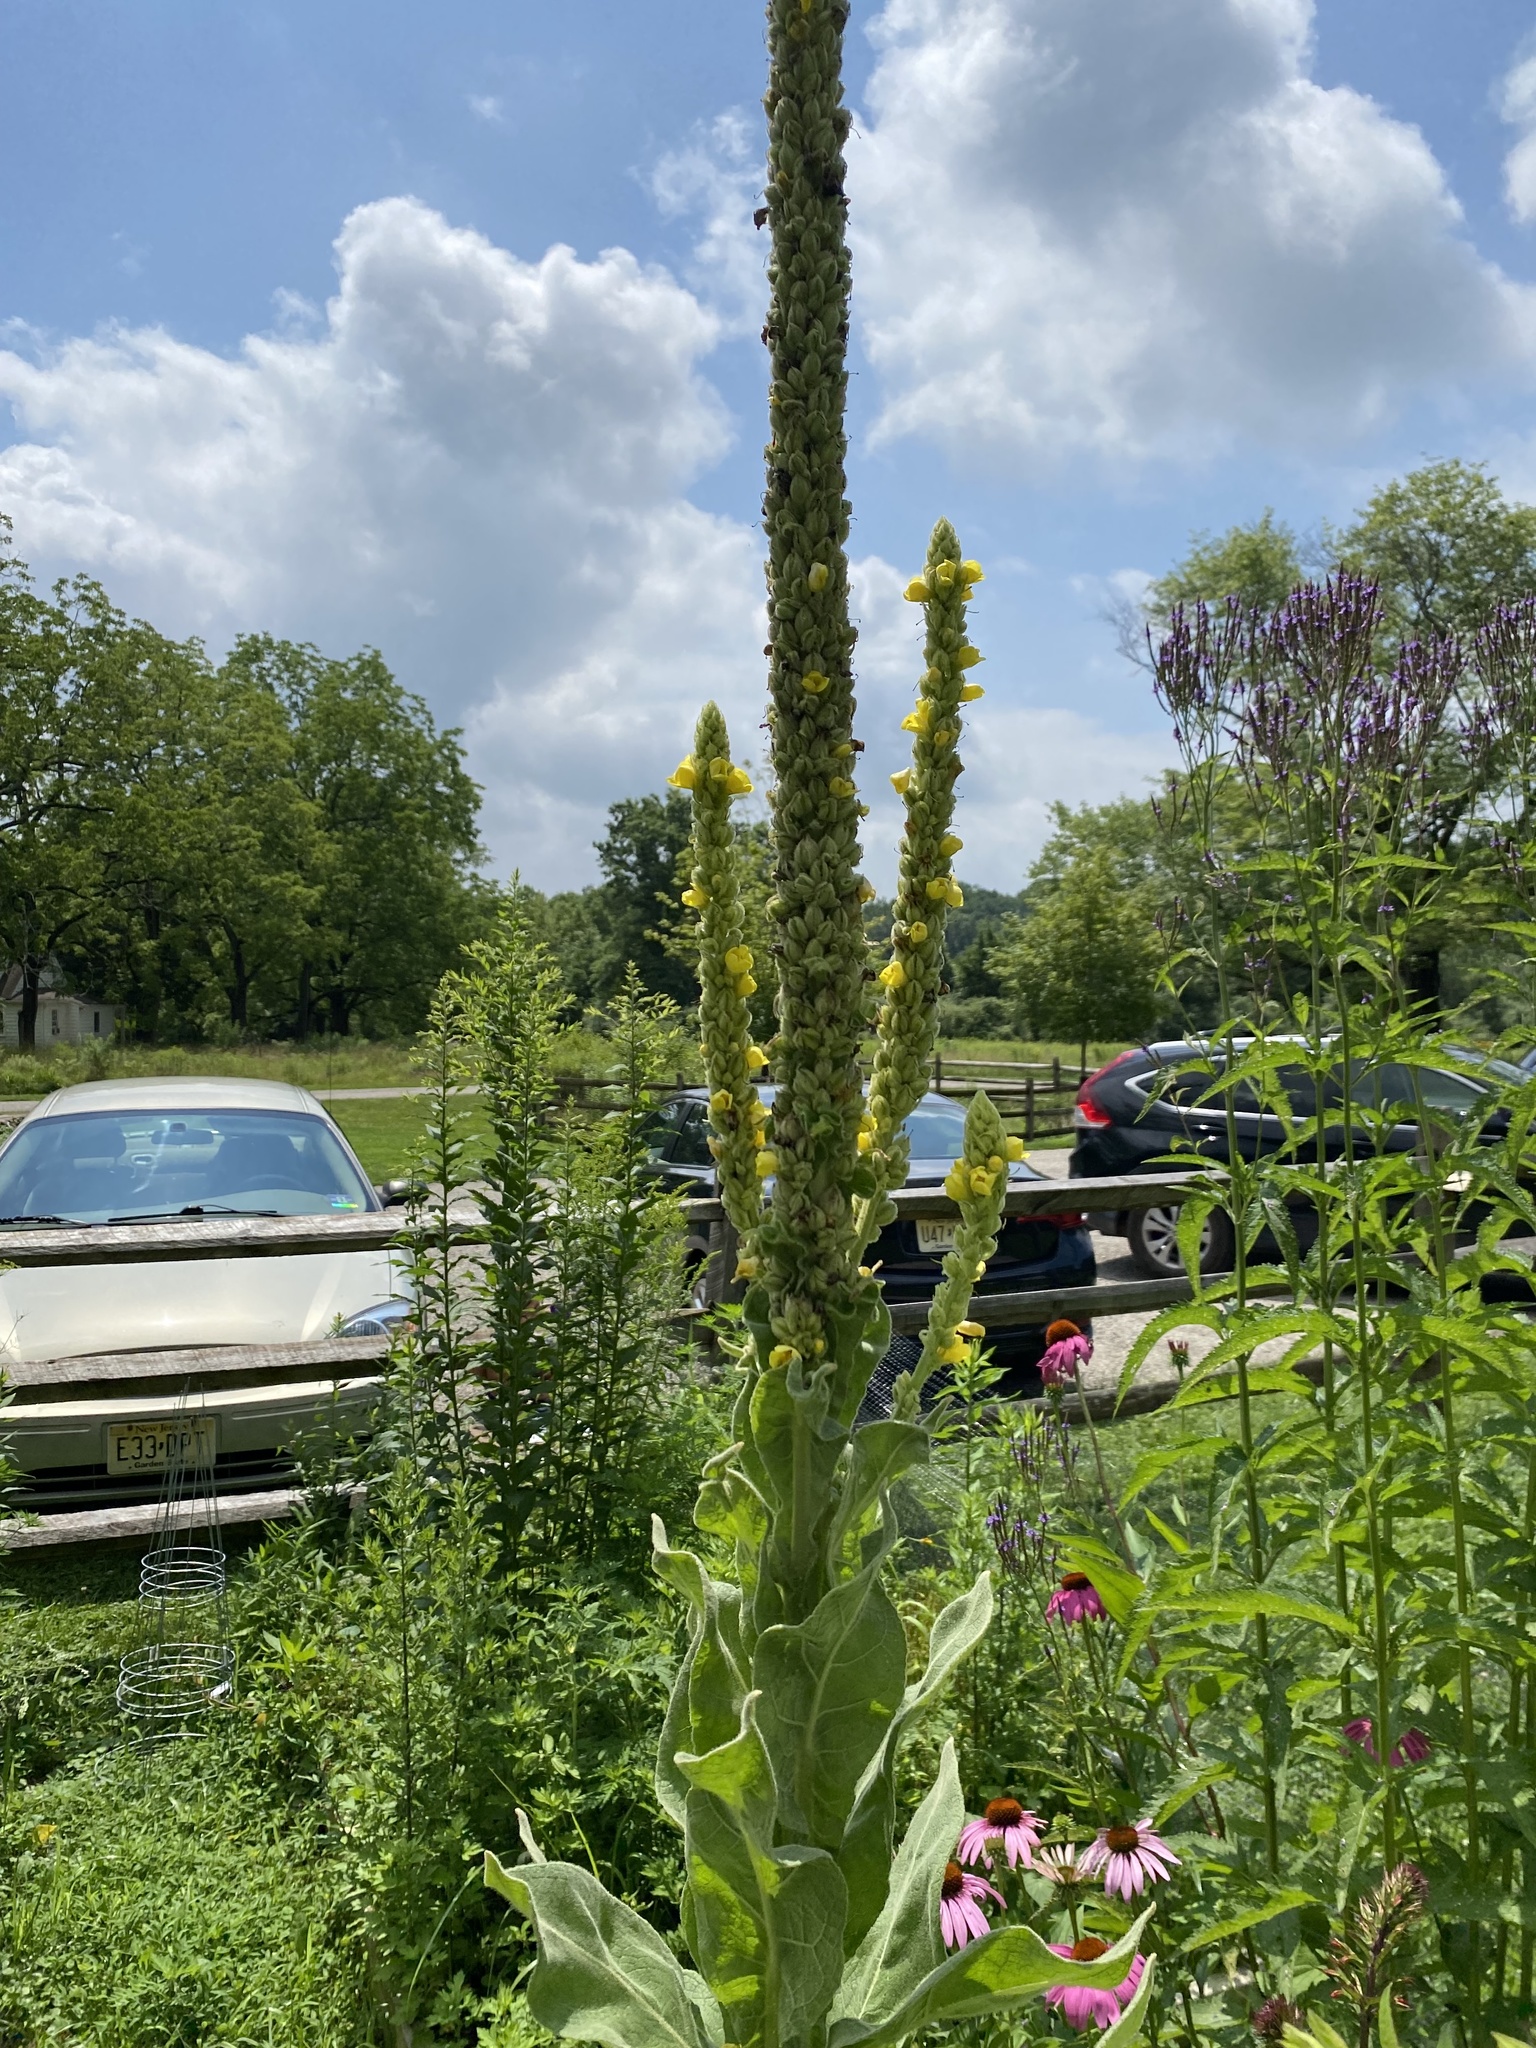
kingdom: Plantae
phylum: Tracheophyta
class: Magnoliopsida
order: Lamiales
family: Scrophulariaceae
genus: Verbascum
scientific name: Verbascum thapsus
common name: Common mullein
